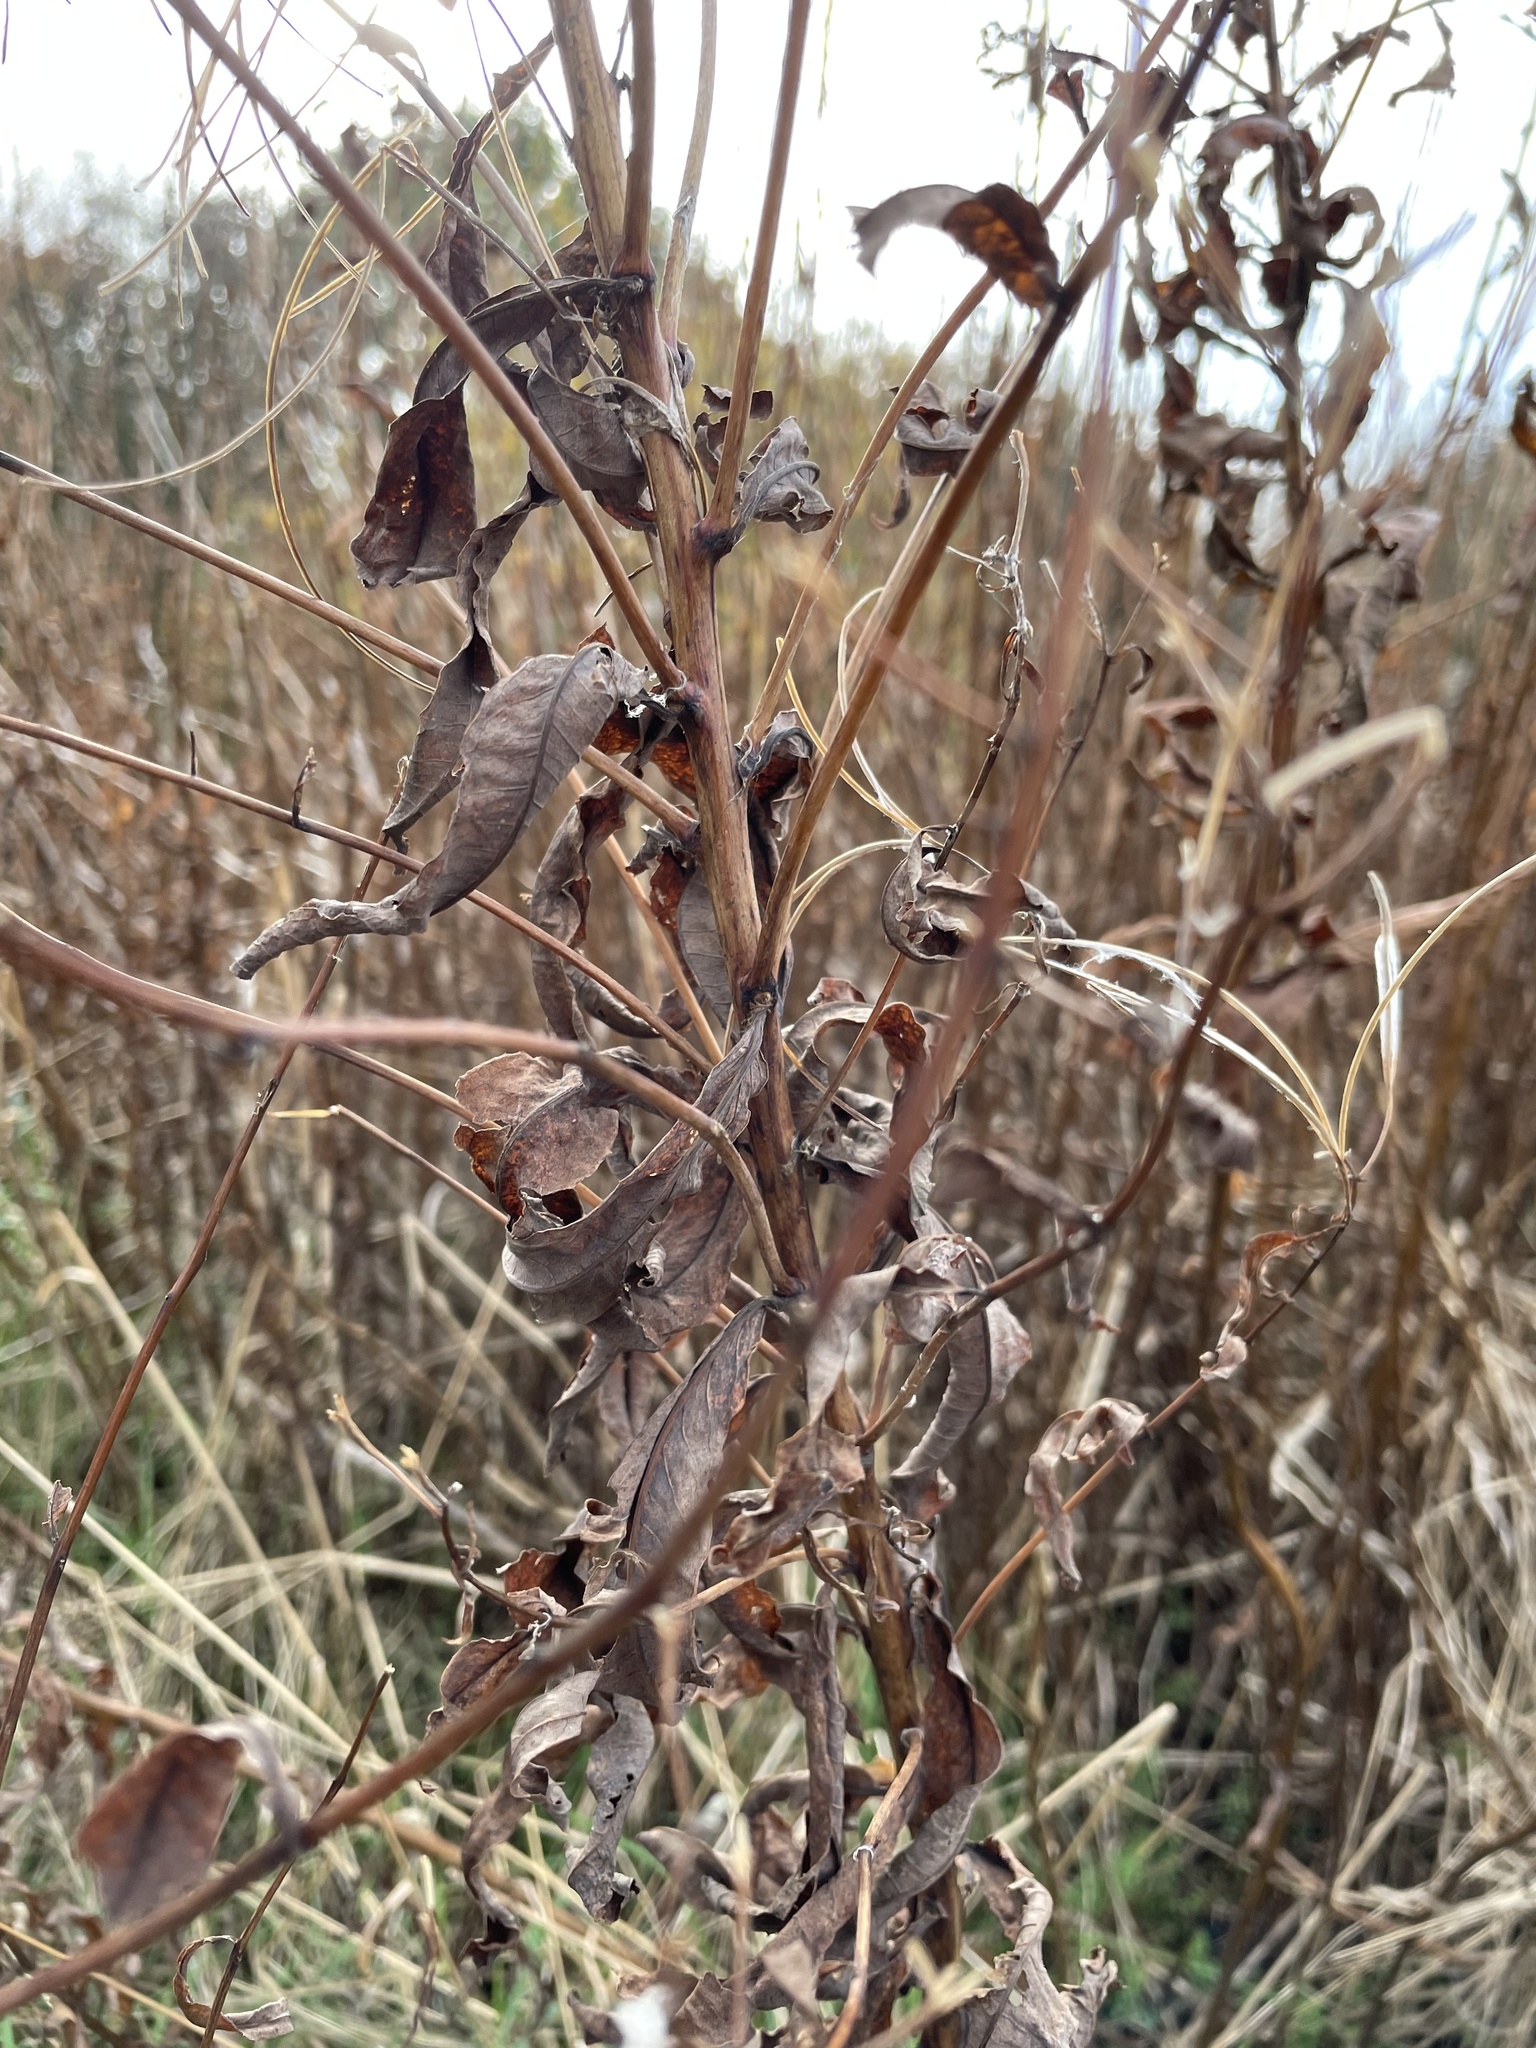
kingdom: Plantae
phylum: Tracheophyta
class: Magnoliopsida
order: Myrtales
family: Onagraceae
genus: Chamaenerion
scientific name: Chamaenerion angustifolium
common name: Fireweed
